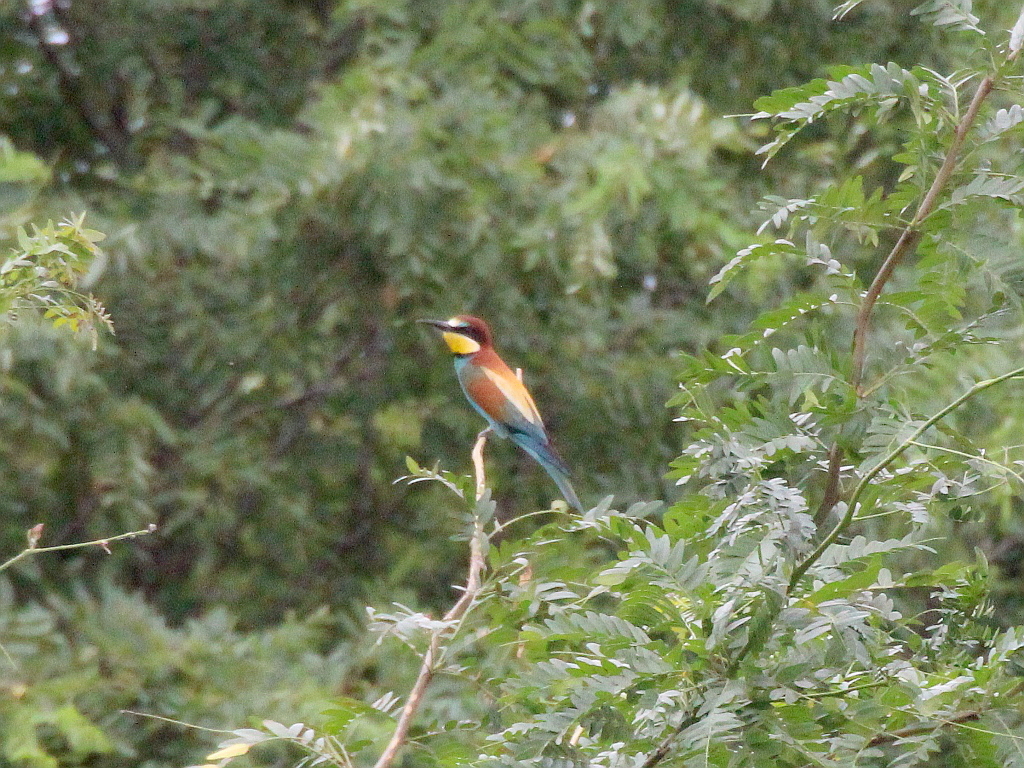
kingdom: Animalia
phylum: Chordata
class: Aves
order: Coraciiformes
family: Meropidae
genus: Merops
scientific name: Merops apiaster
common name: European bee-eater
